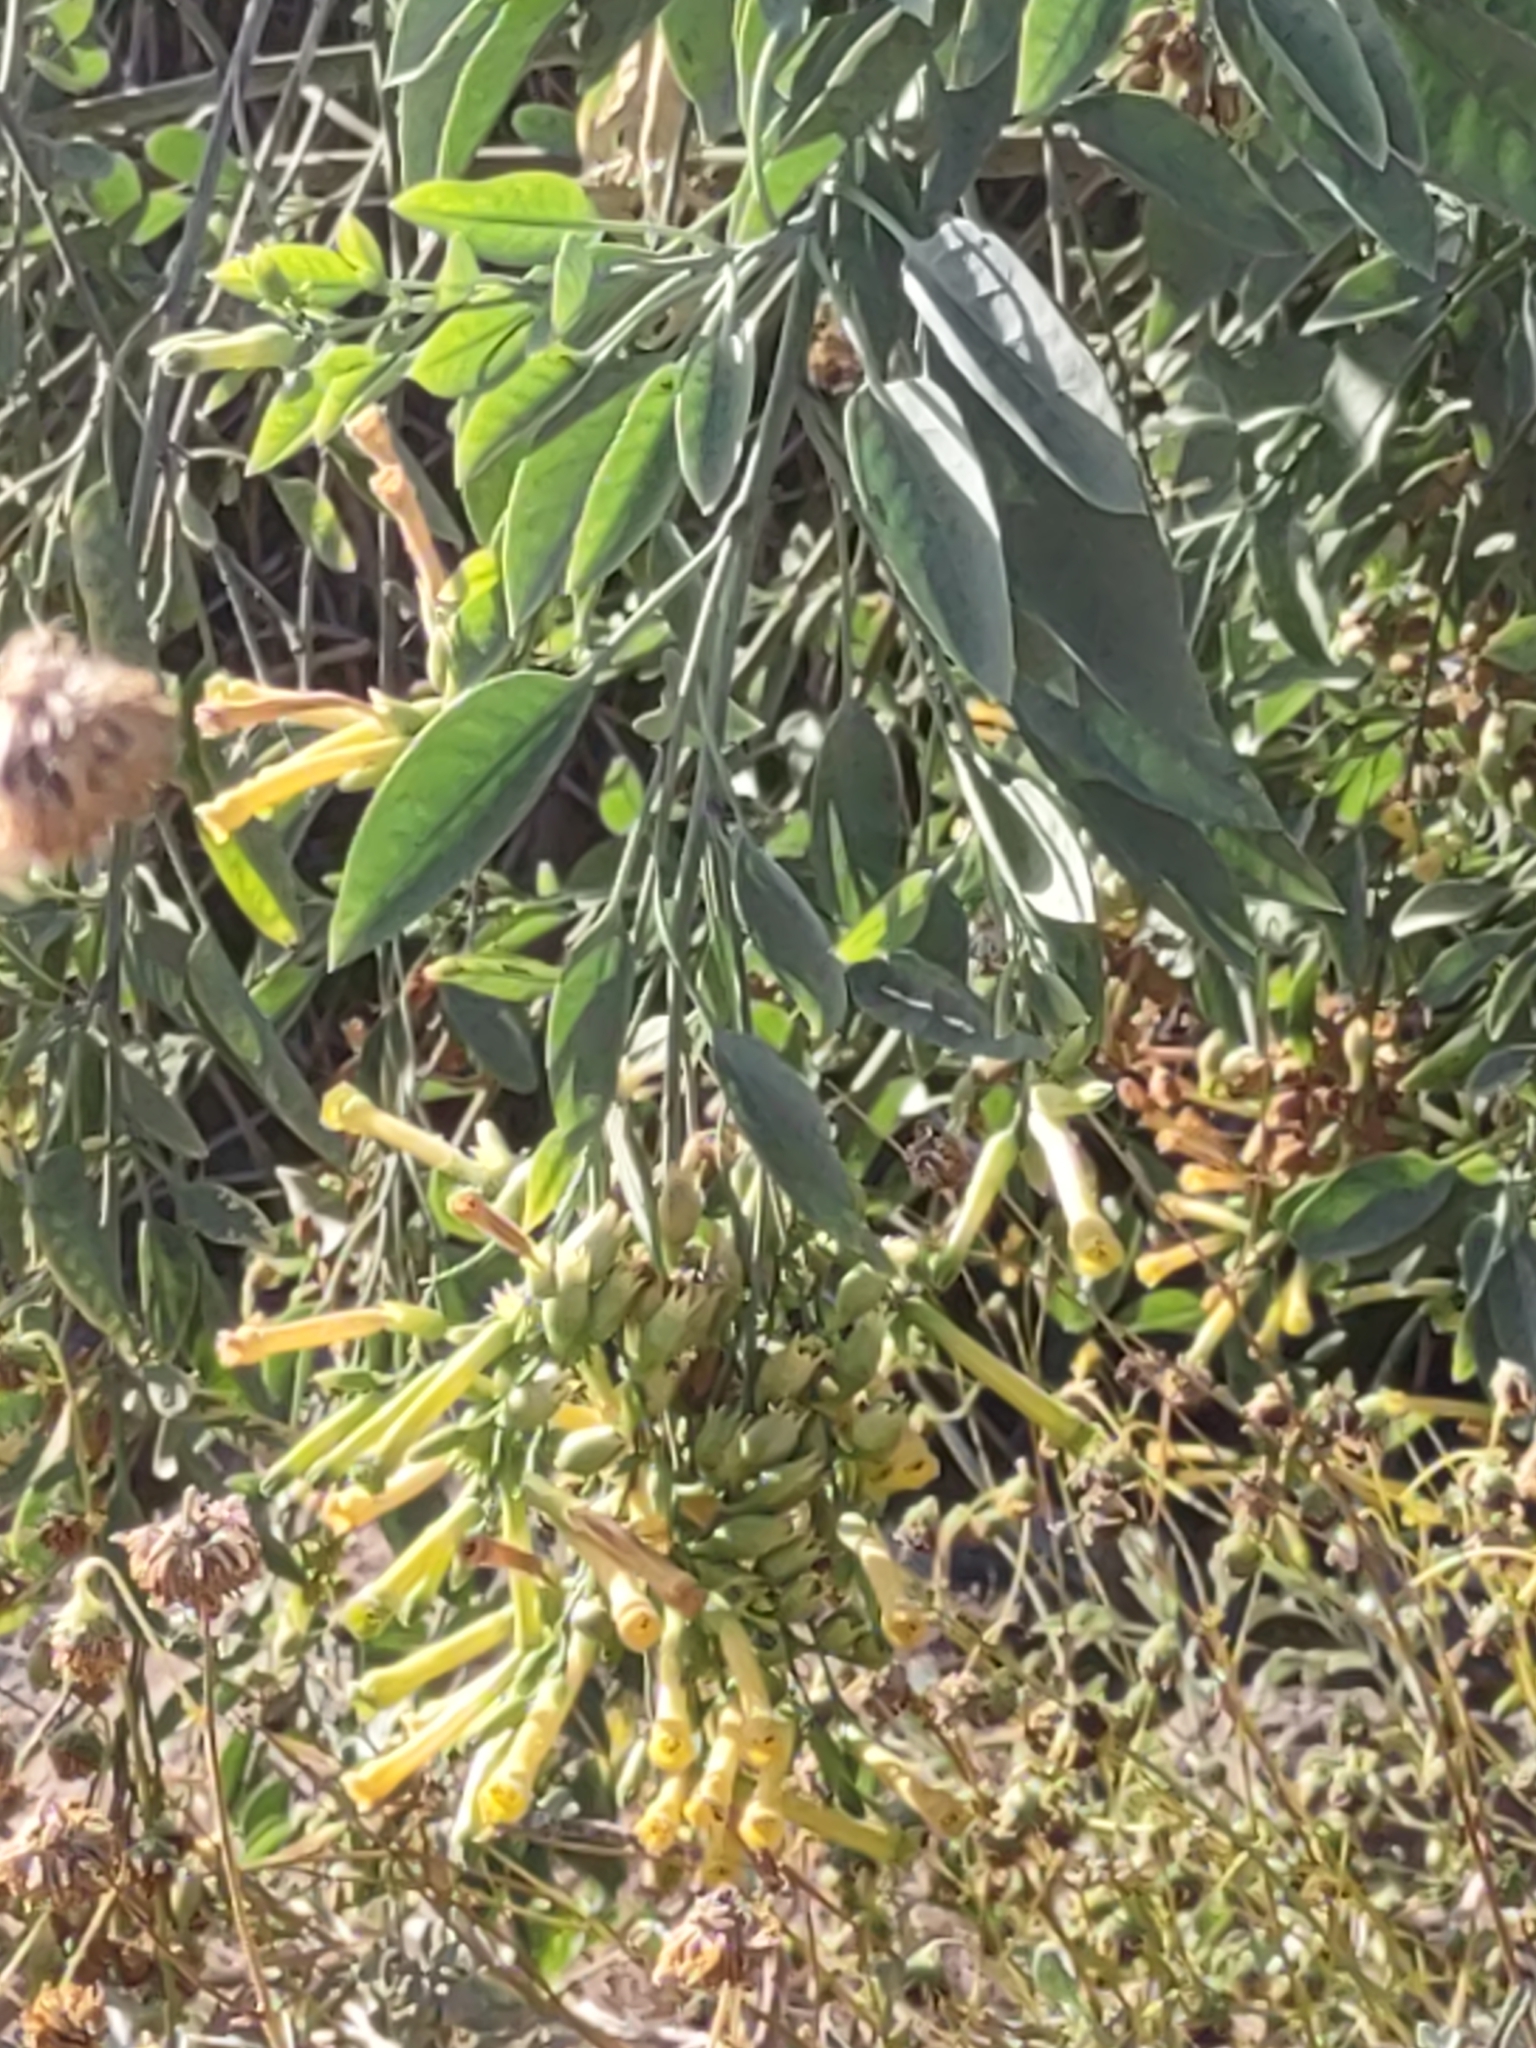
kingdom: Plantae
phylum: Tracheophyta
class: Magnoliopsida
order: Solanales
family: Solanaceae
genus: Nicotiana
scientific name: Nicotiana glauca
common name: Tree tobacco
